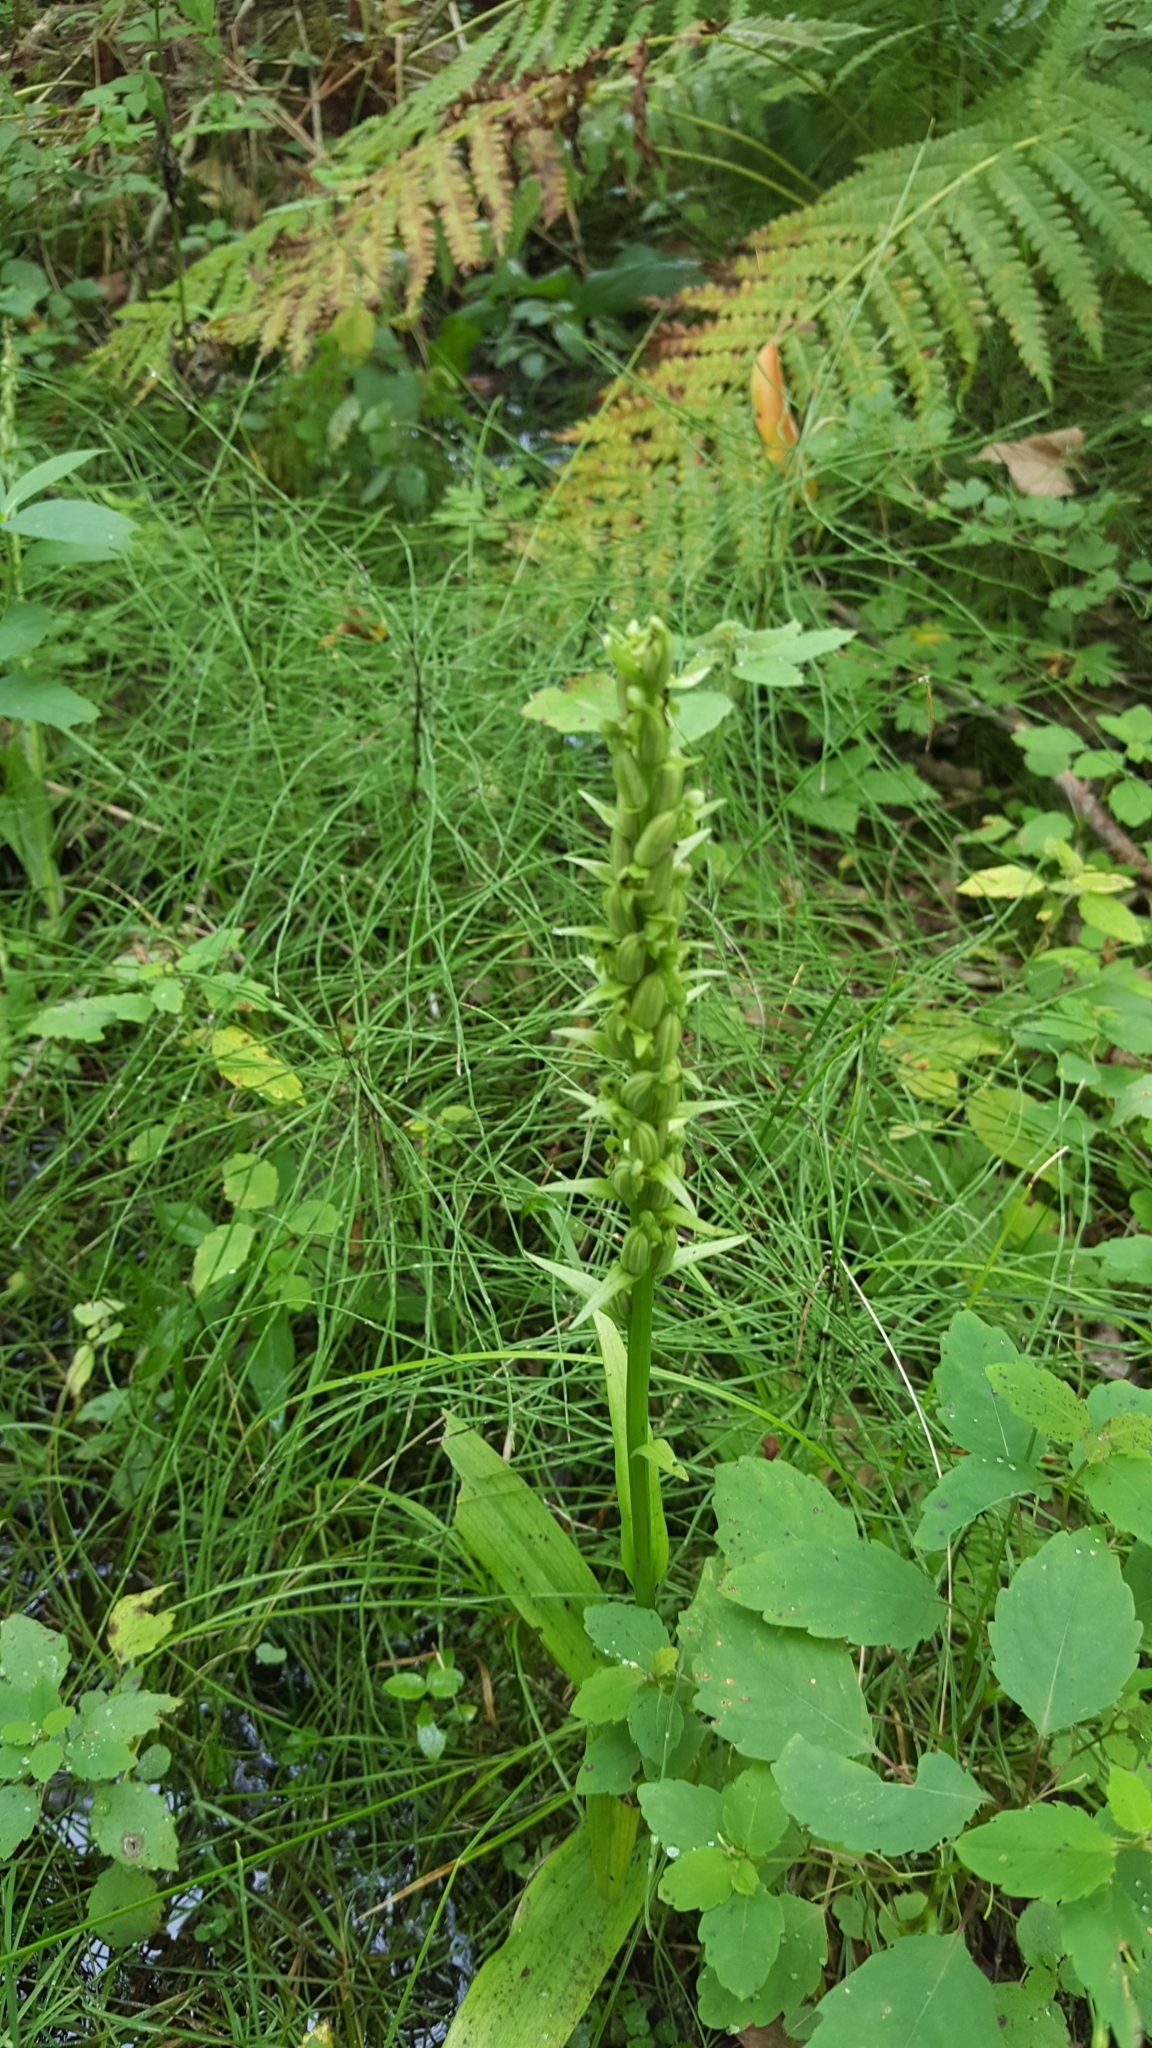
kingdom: Plantae
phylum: Tracheophyta
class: Magnoliopsida
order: Ericales
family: Balsaminaceae
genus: Impatiens
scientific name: Impatiens capensis
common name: Orange balsam
